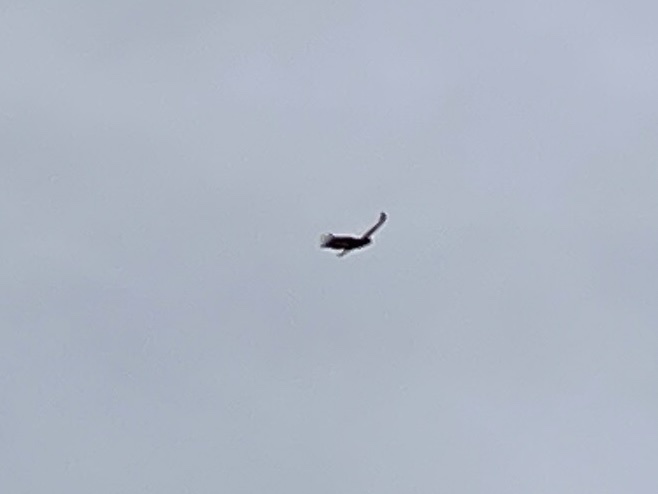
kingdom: Animalia
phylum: Chordata
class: Aves
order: Accipitriformes
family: Cathartidae
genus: Cathartes
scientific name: Cathartes aura
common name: Turkey vulture
